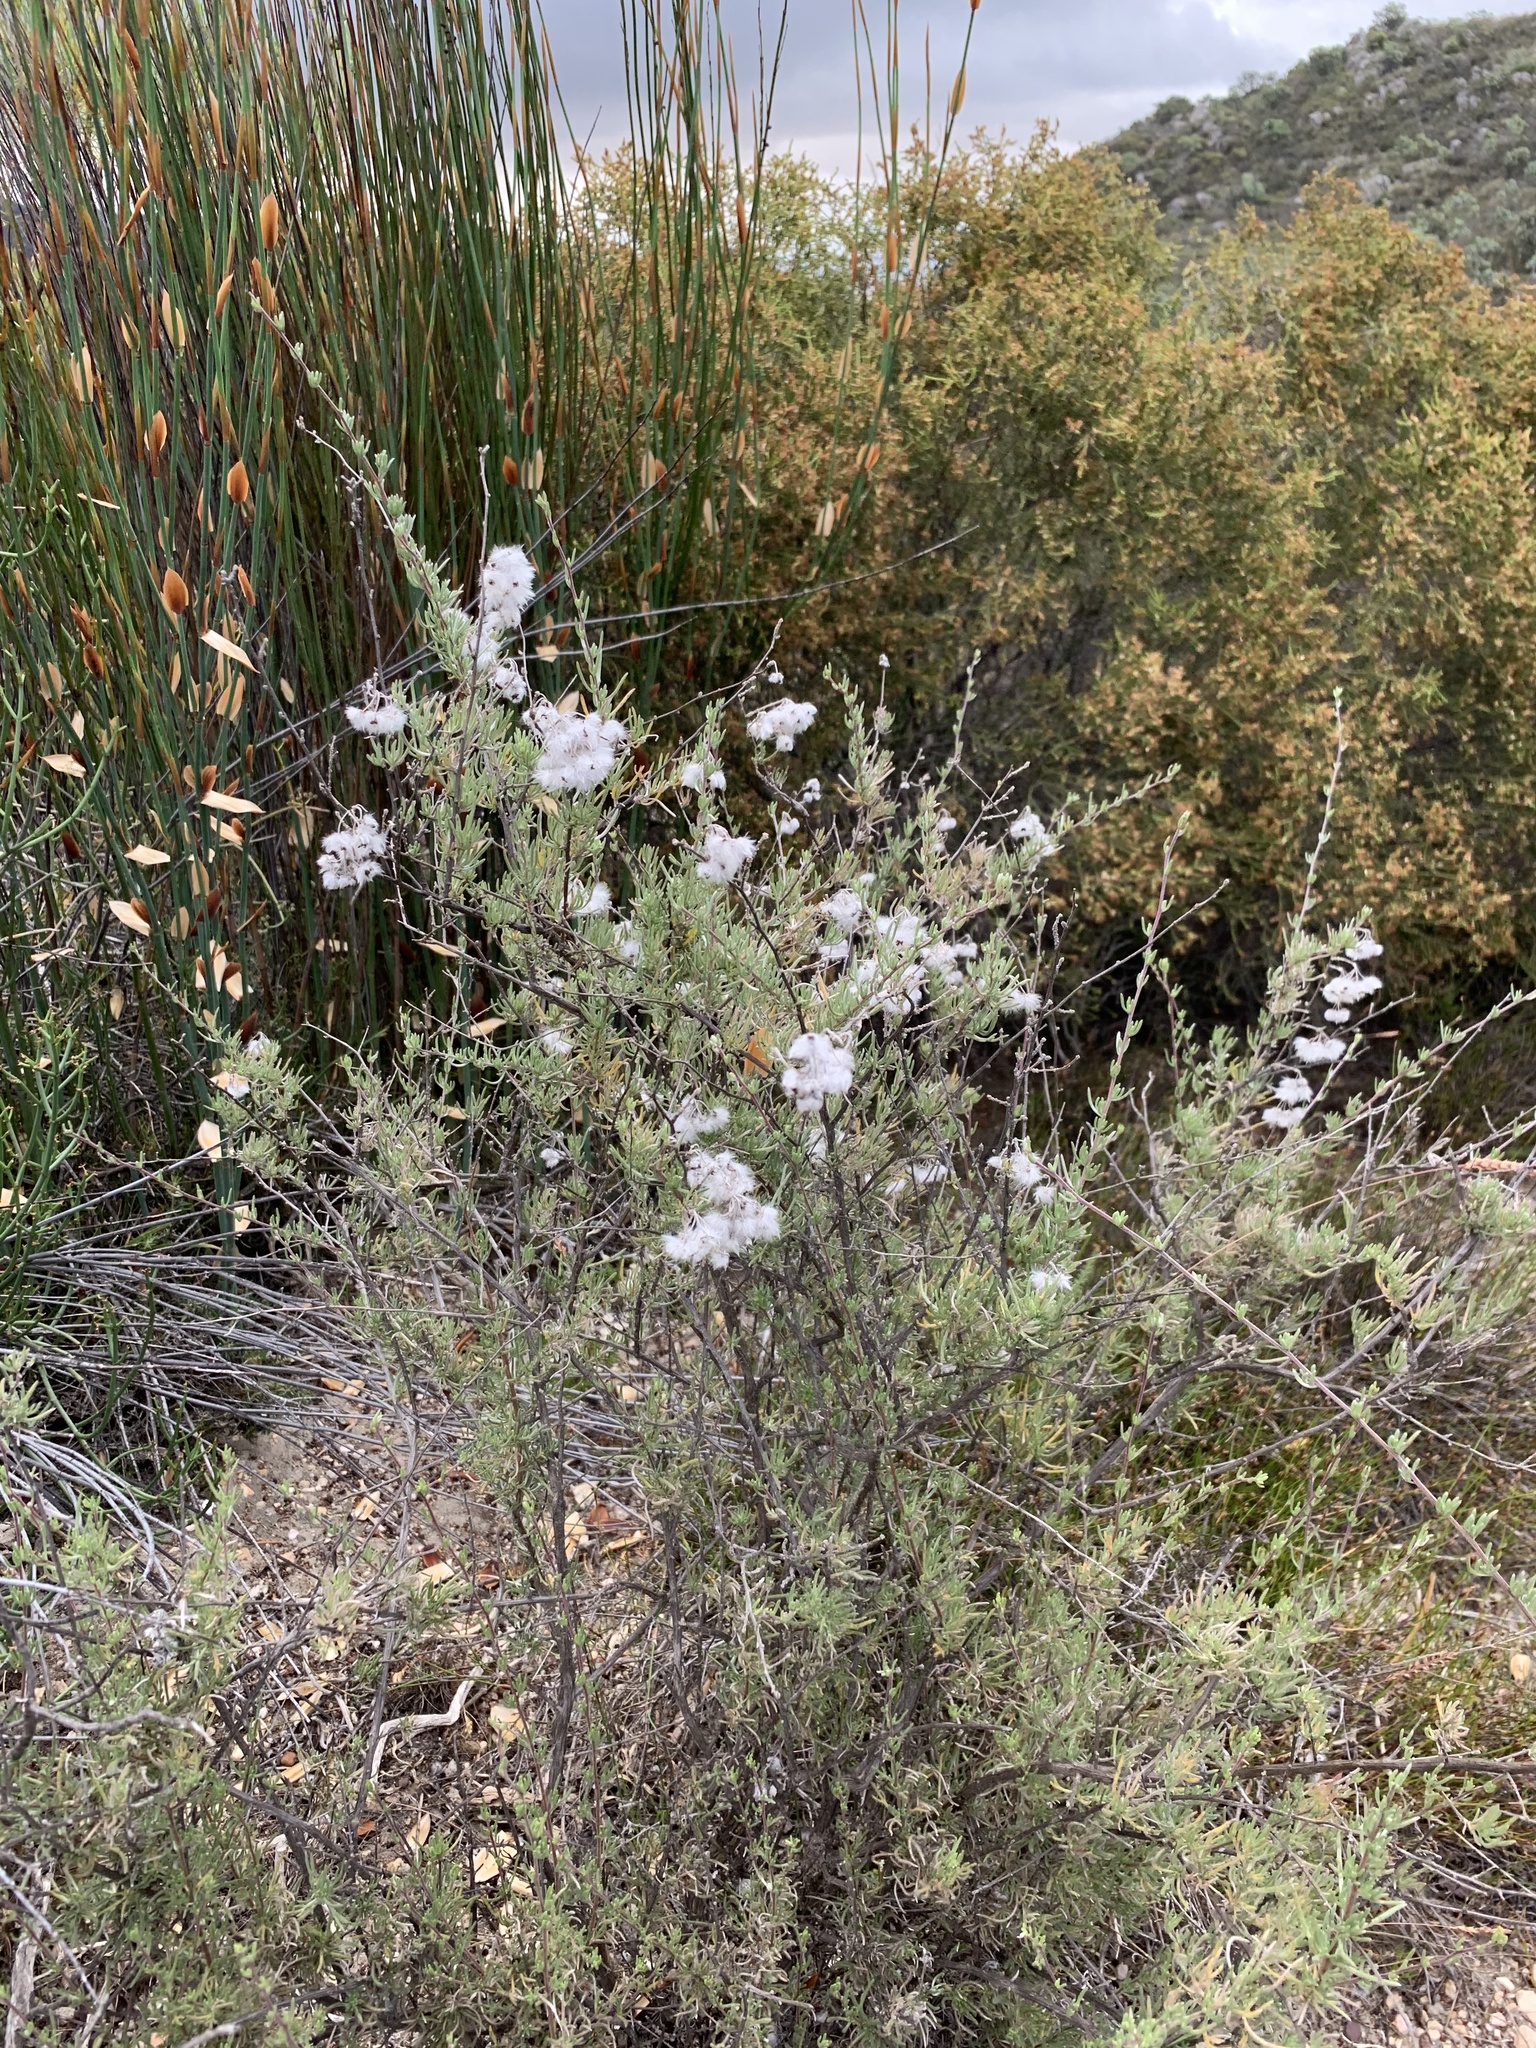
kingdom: Plantae
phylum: Tracheophyta
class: Magnoliopsida
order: Asterales
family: Asteraceae
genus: Eriocephalus
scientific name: Eriocephalus africanus
